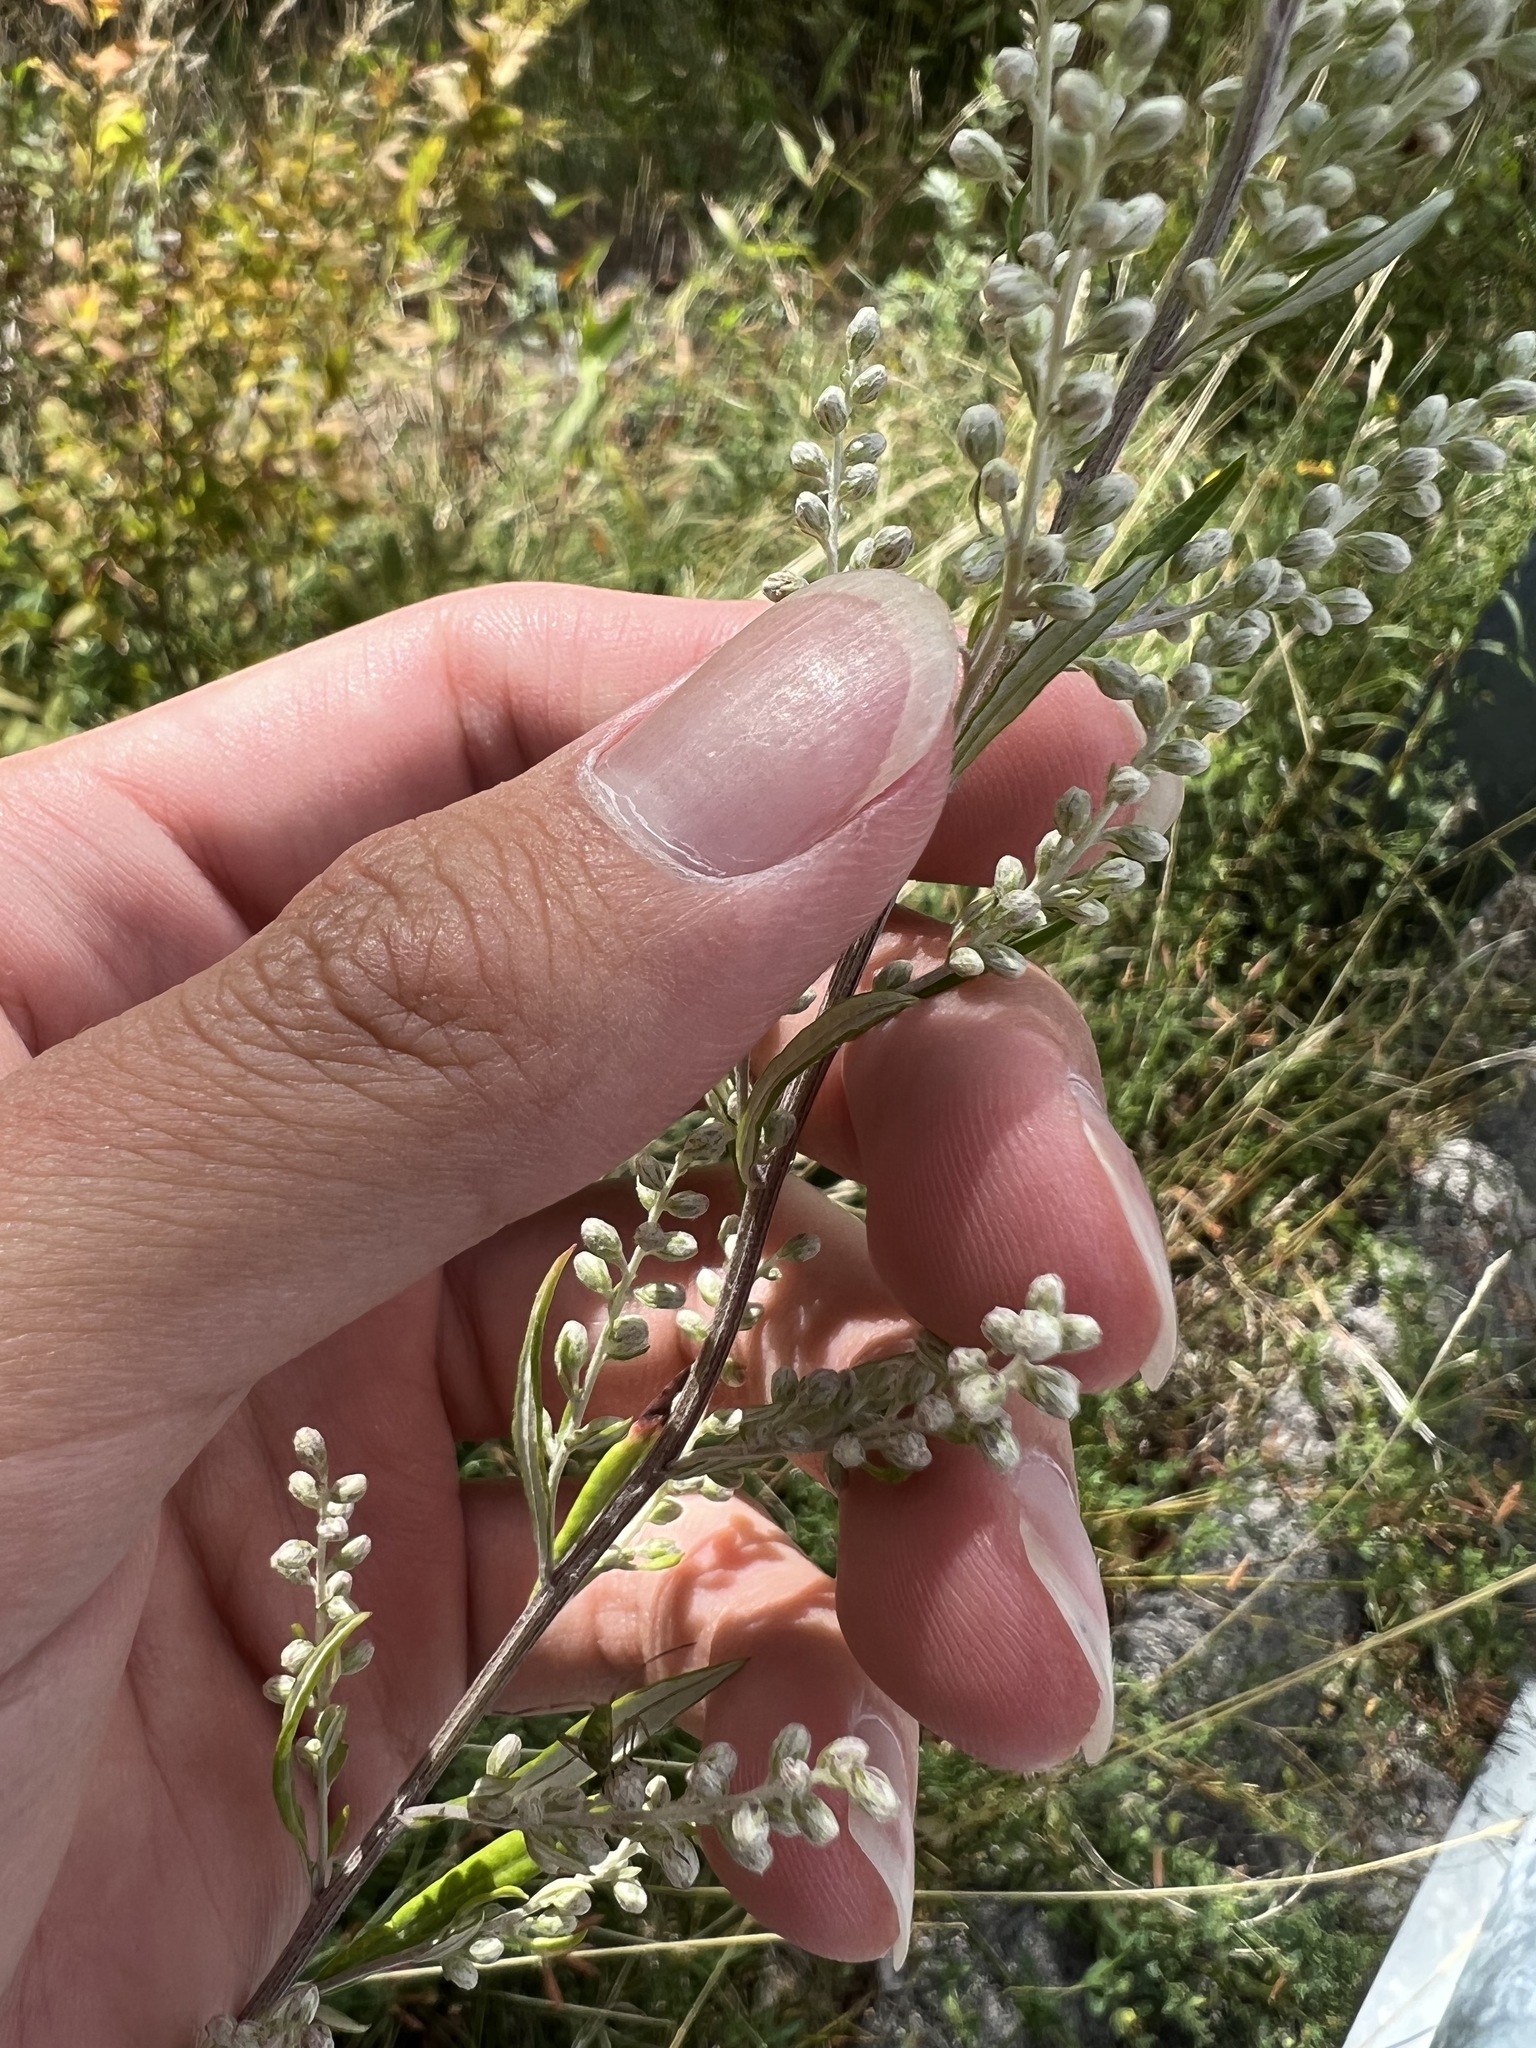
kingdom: Plantae
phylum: Tracheophyta
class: Magnoliopsida
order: Asterales
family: Asteraceae
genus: Artemisia
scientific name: Artemisia vulgaris
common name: Mugwort
